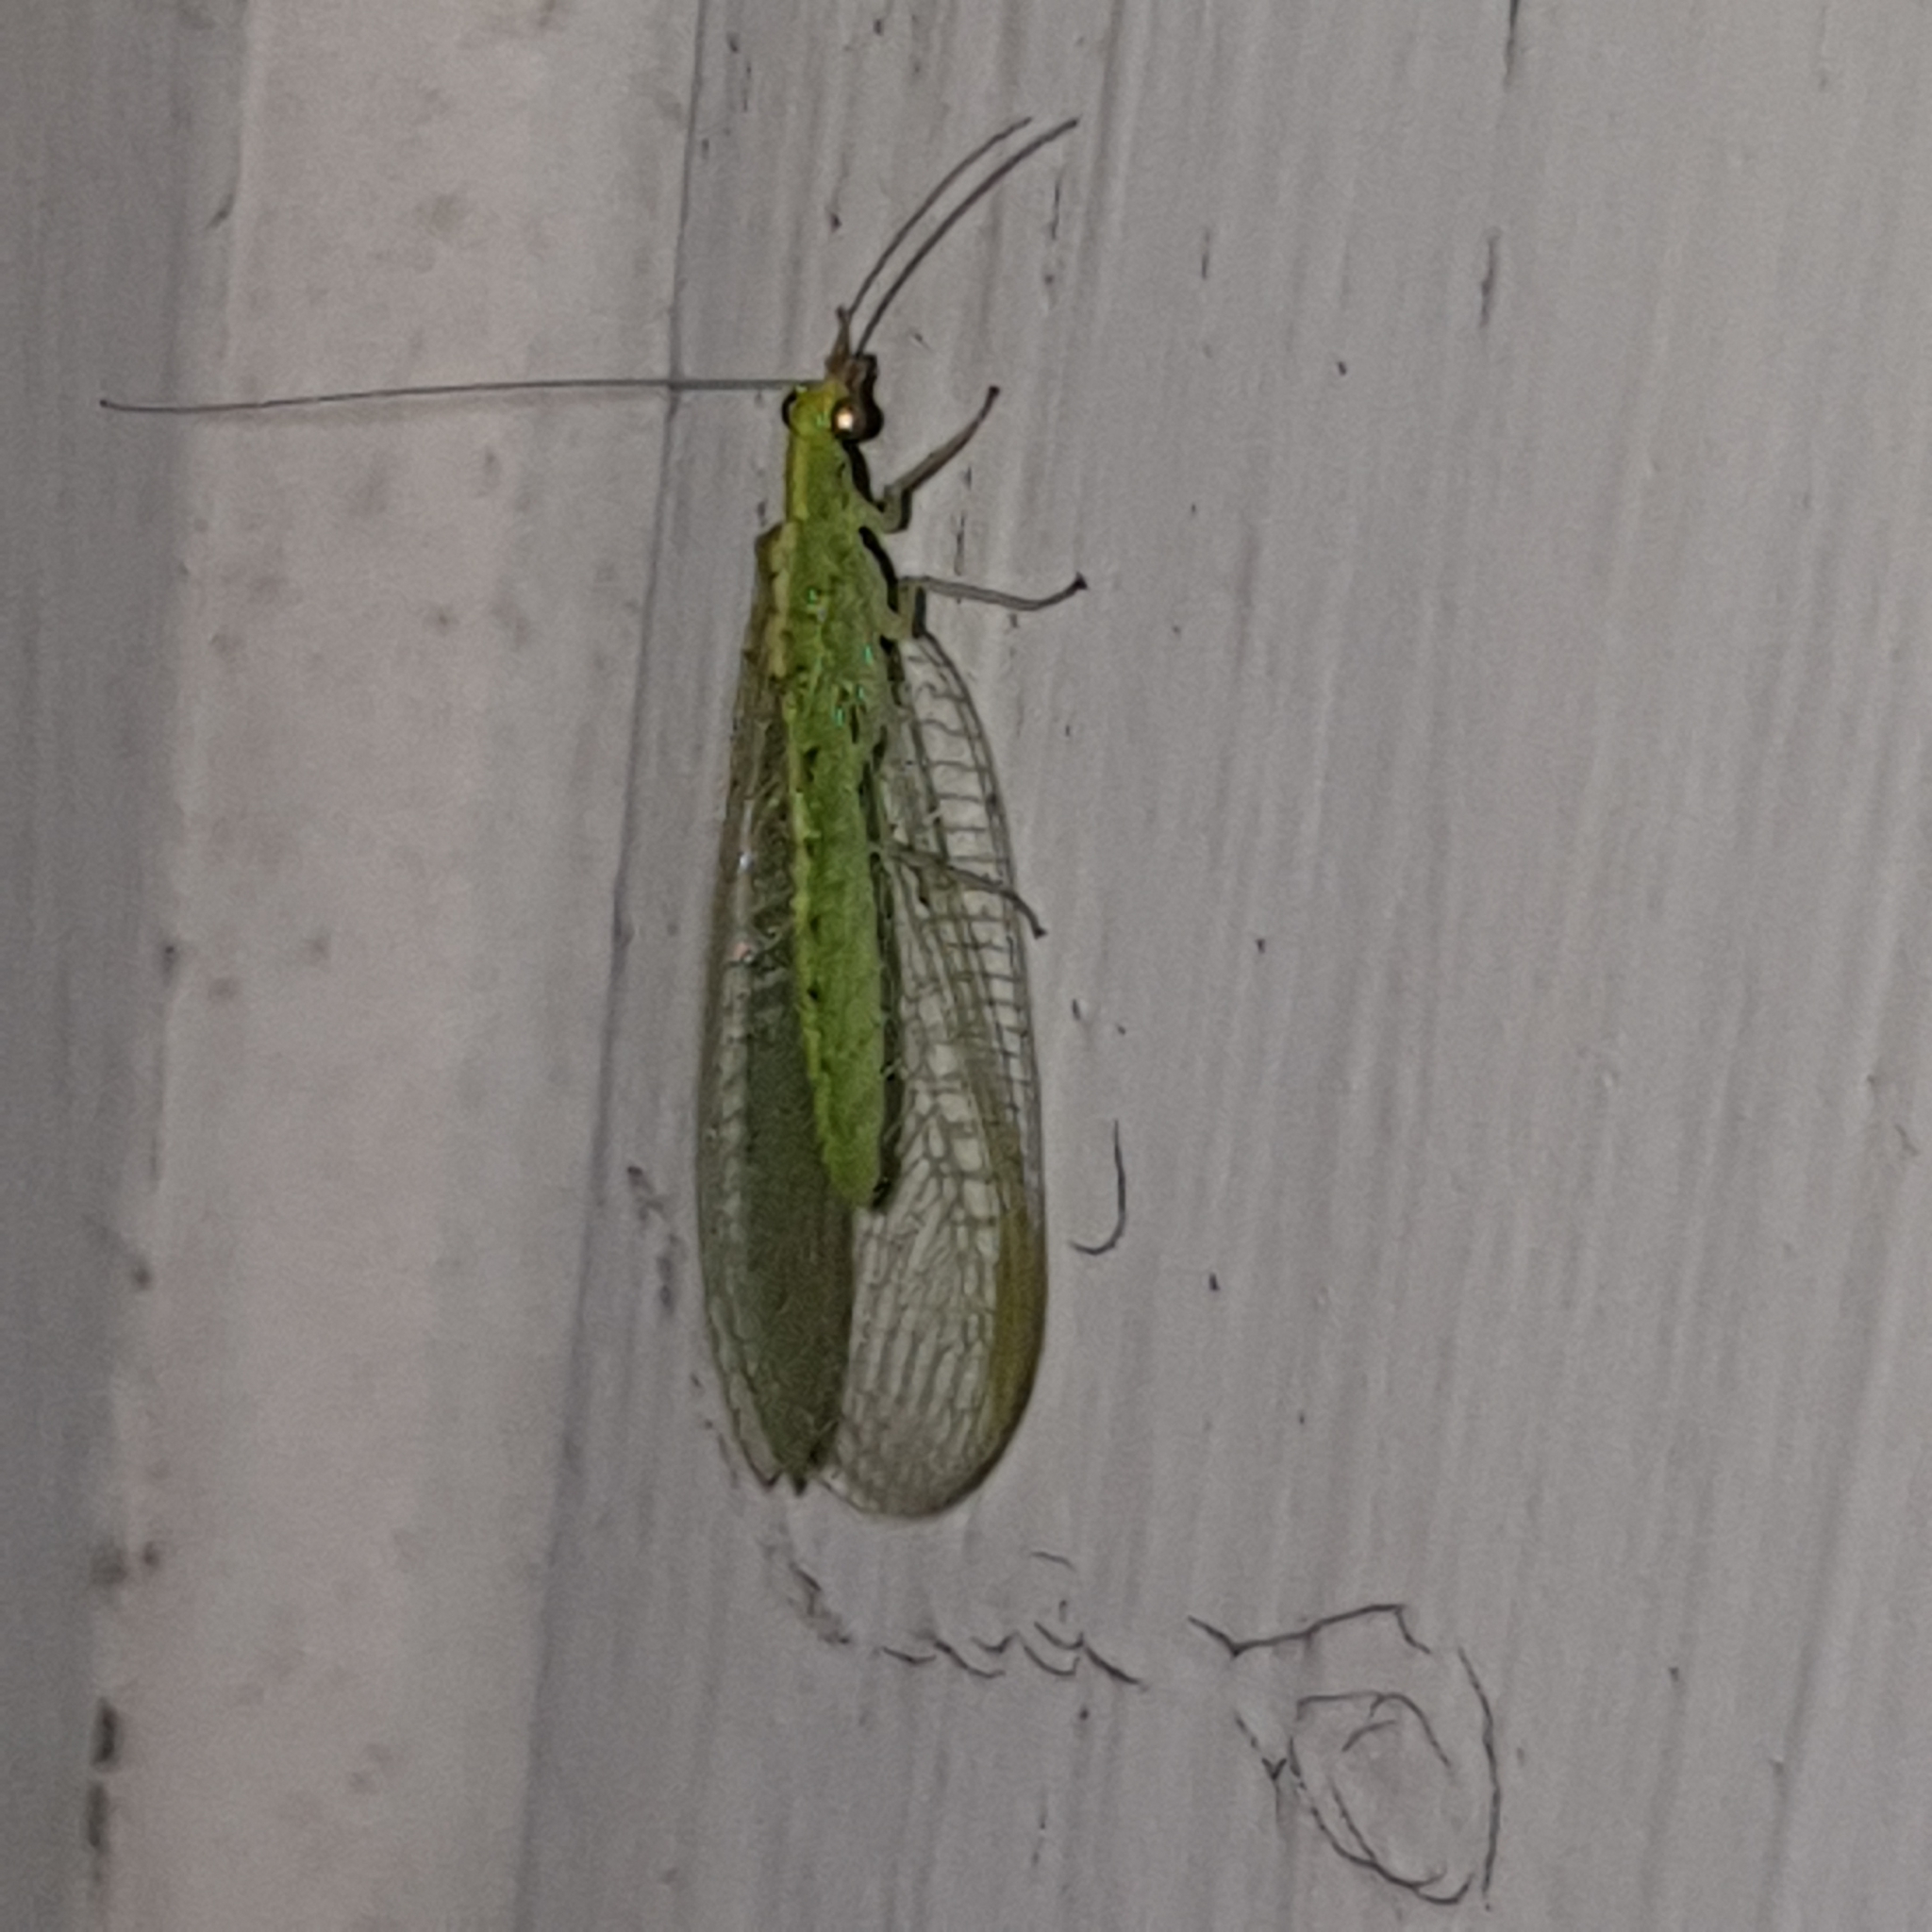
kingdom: Animalia
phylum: Arthropoda
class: Insecta
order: Neuroptera
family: Chrysopidae
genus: Chrysoperla
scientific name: Chrysoperla
